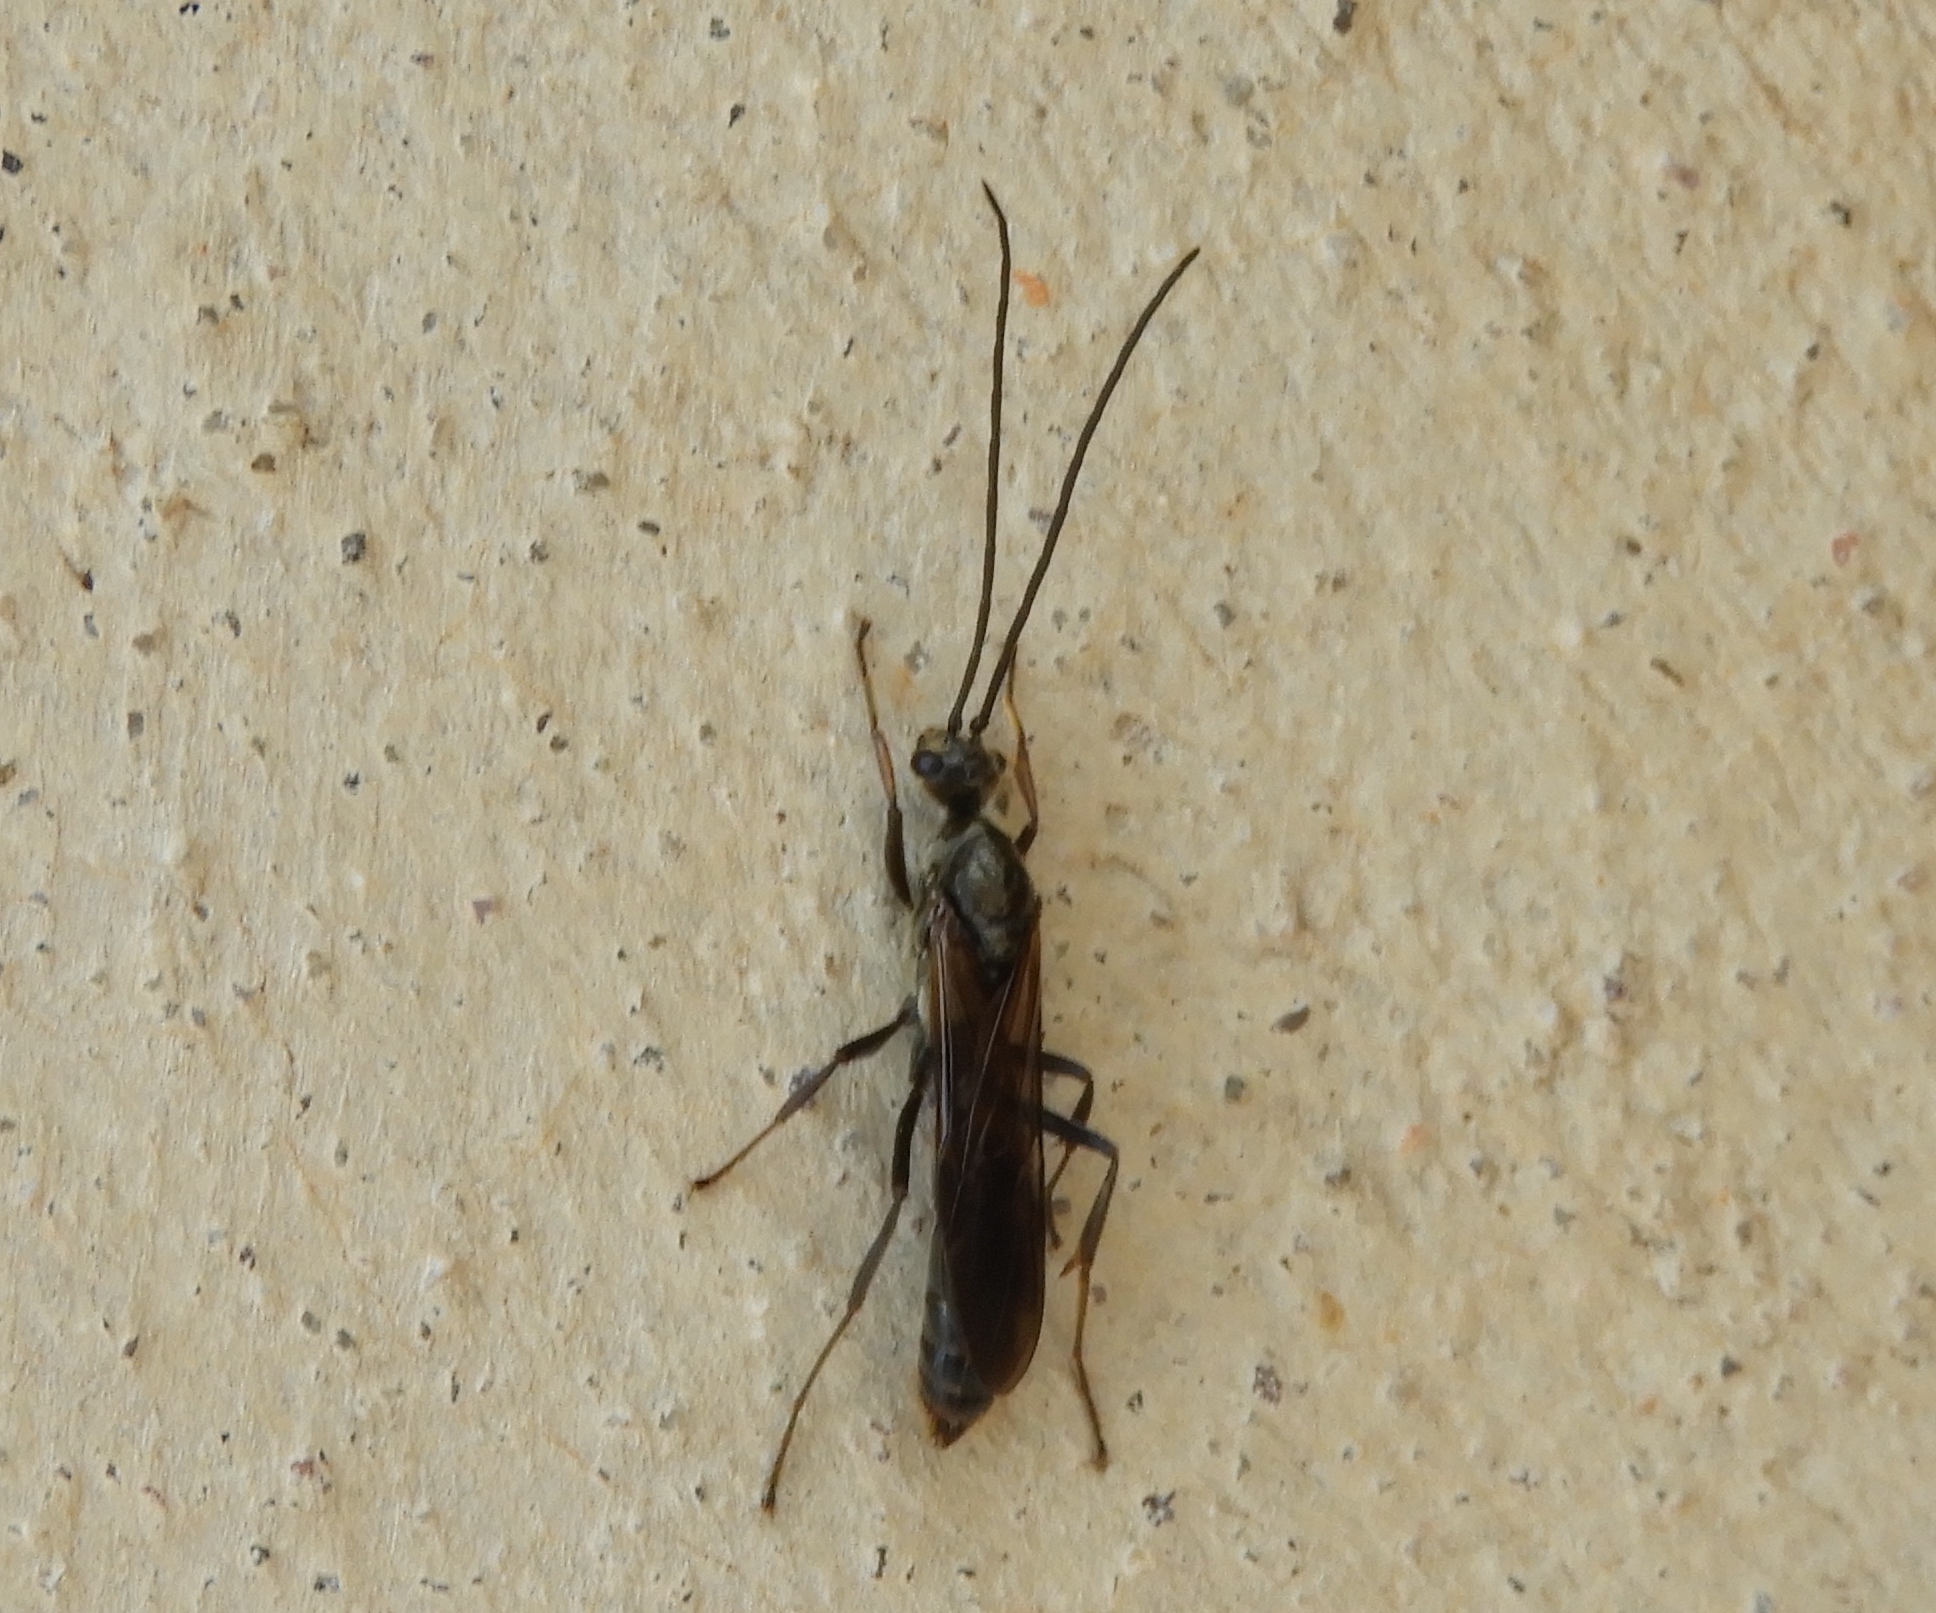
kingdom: Animalia
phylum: Arthropoda
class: Insecta
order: Hymenoptera
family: Formicidae
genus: Pachycondyla
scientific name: Pachycondyla villosa
